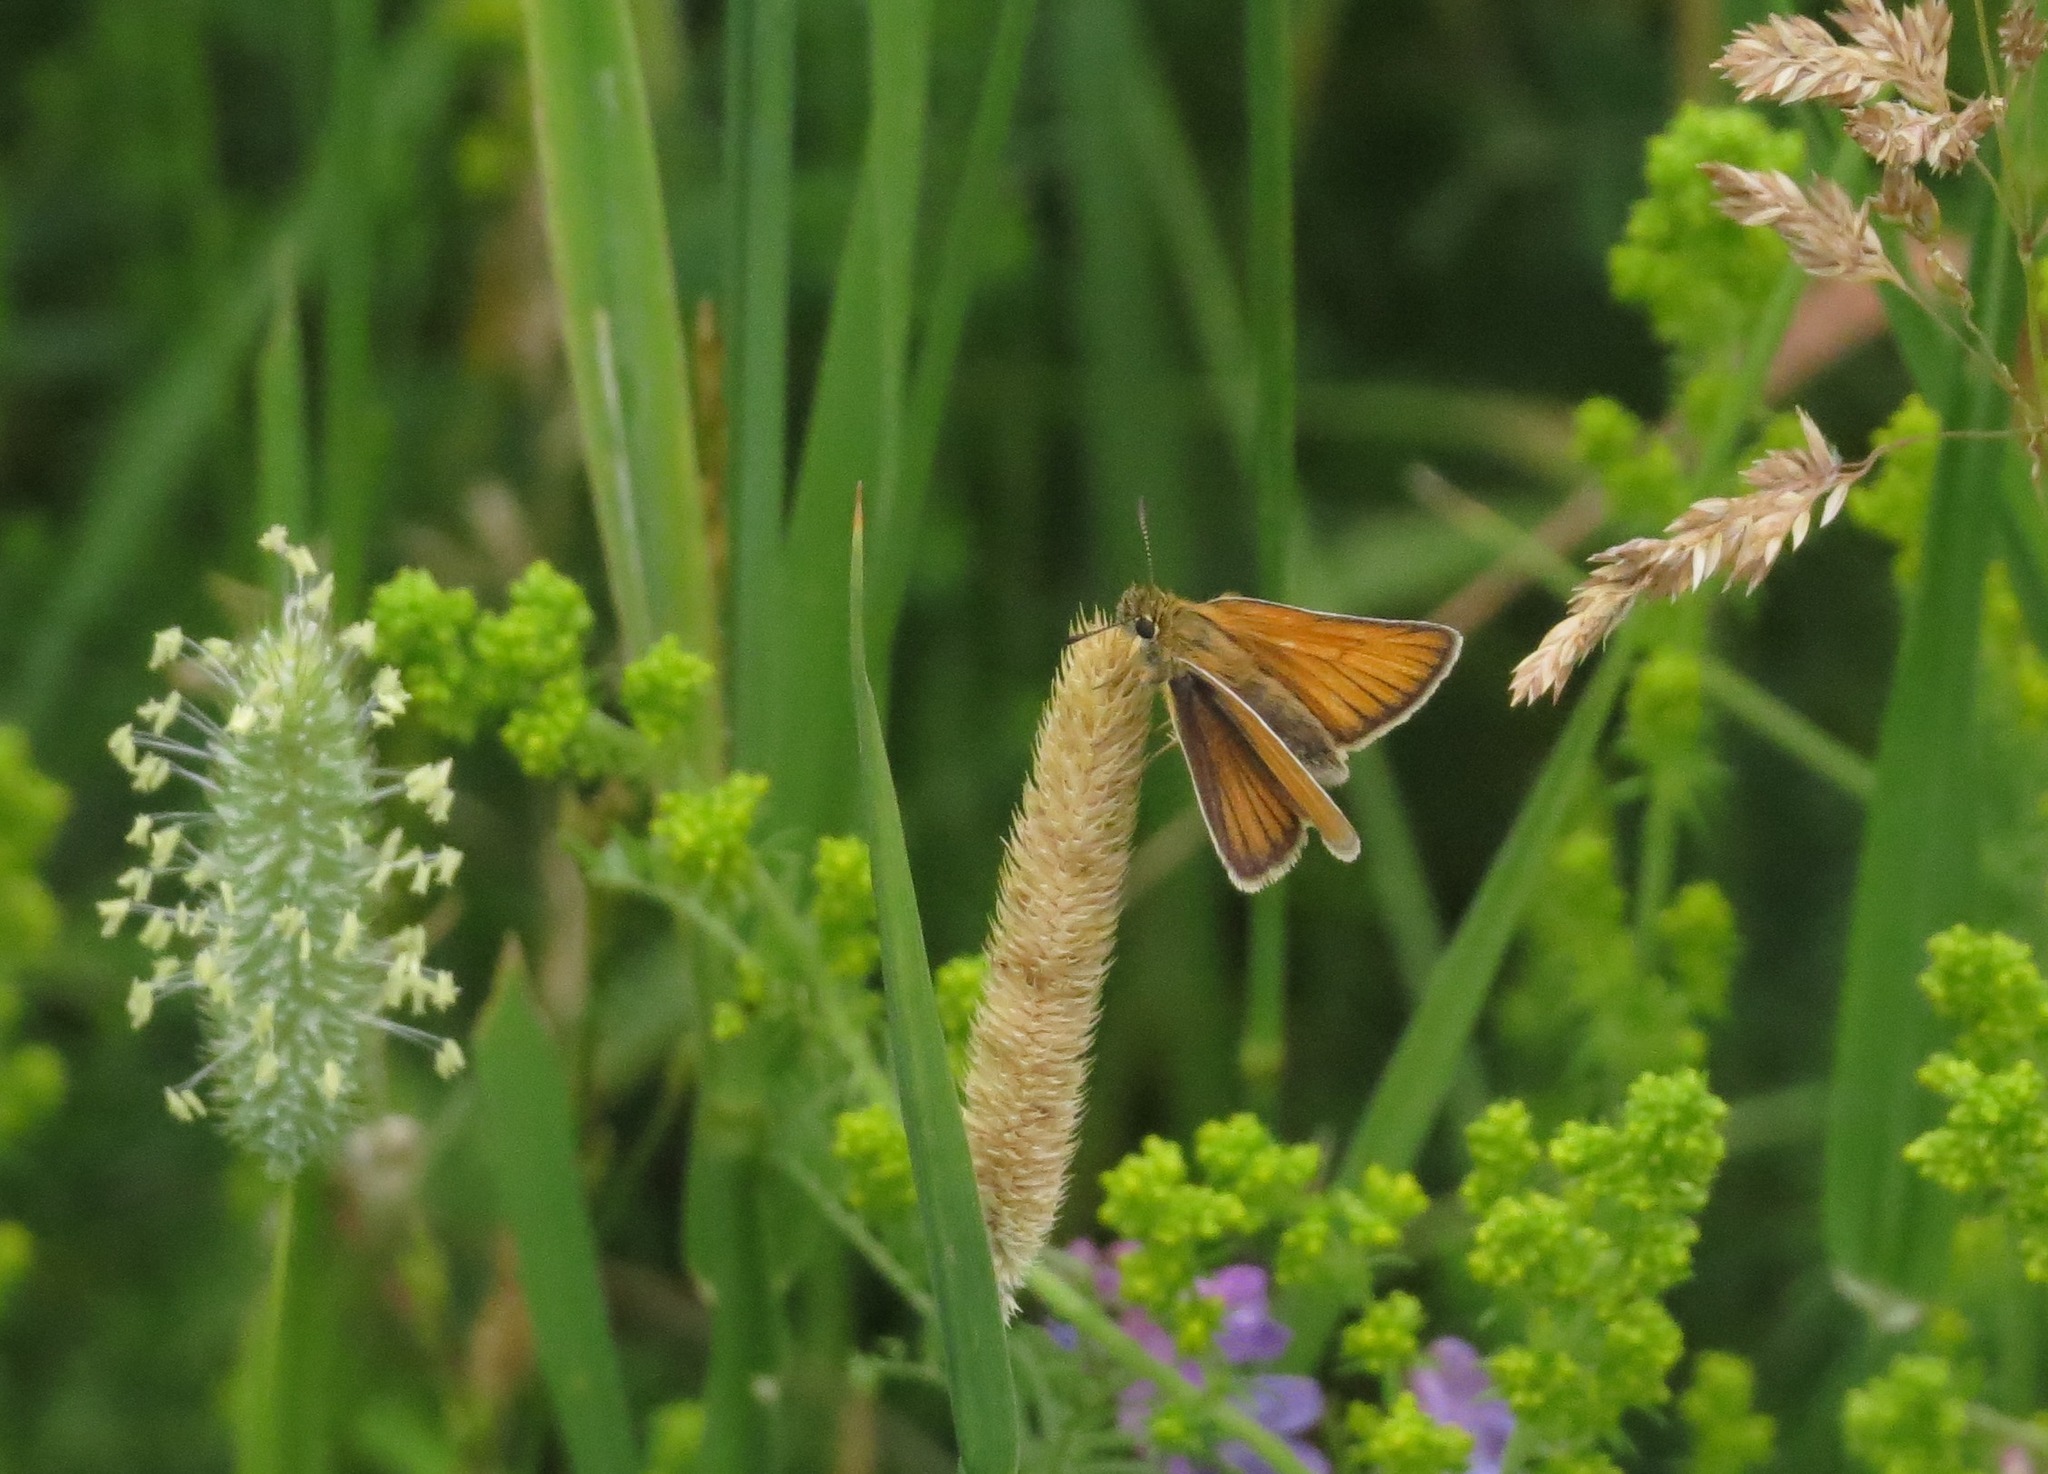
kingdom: Animalia
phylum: Arthropoda
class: Insecta
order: Lepidoptera
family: Hesperiidae
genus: Thymelicus
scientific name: Thymelicus lineola
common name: Essex skipper
